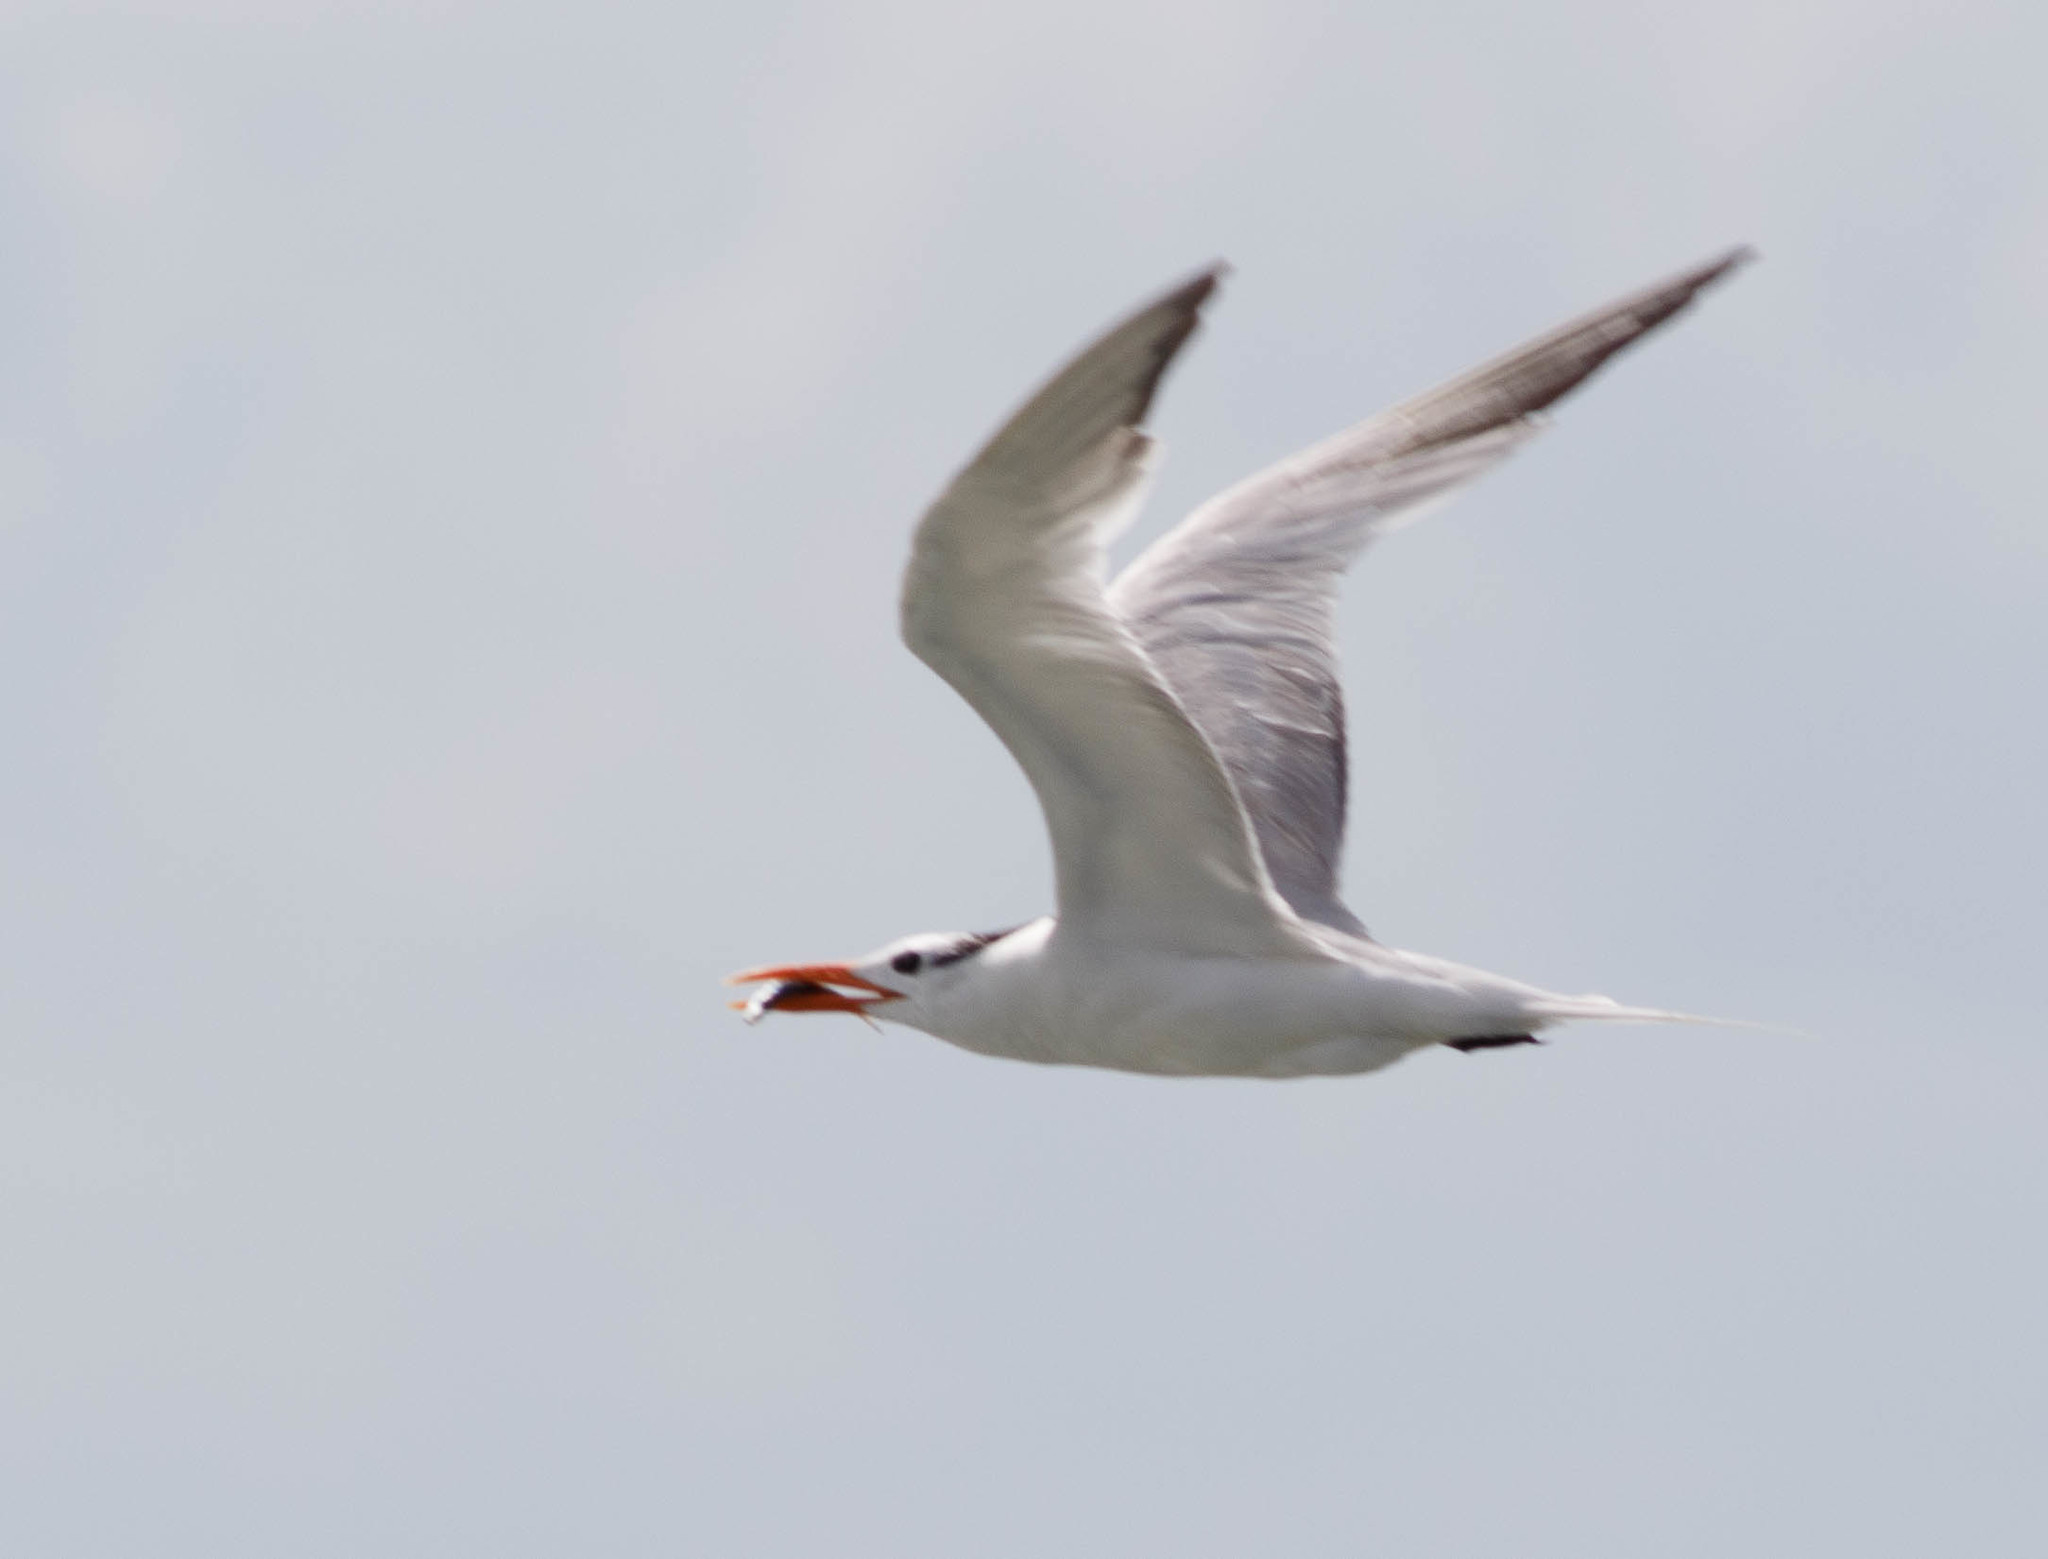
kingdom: Animalia
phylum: Chordata
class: Aves
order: Charadriiformes
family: Laridae
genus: Thalasseus
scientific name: Thalasseus maximus
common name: Royal tern
